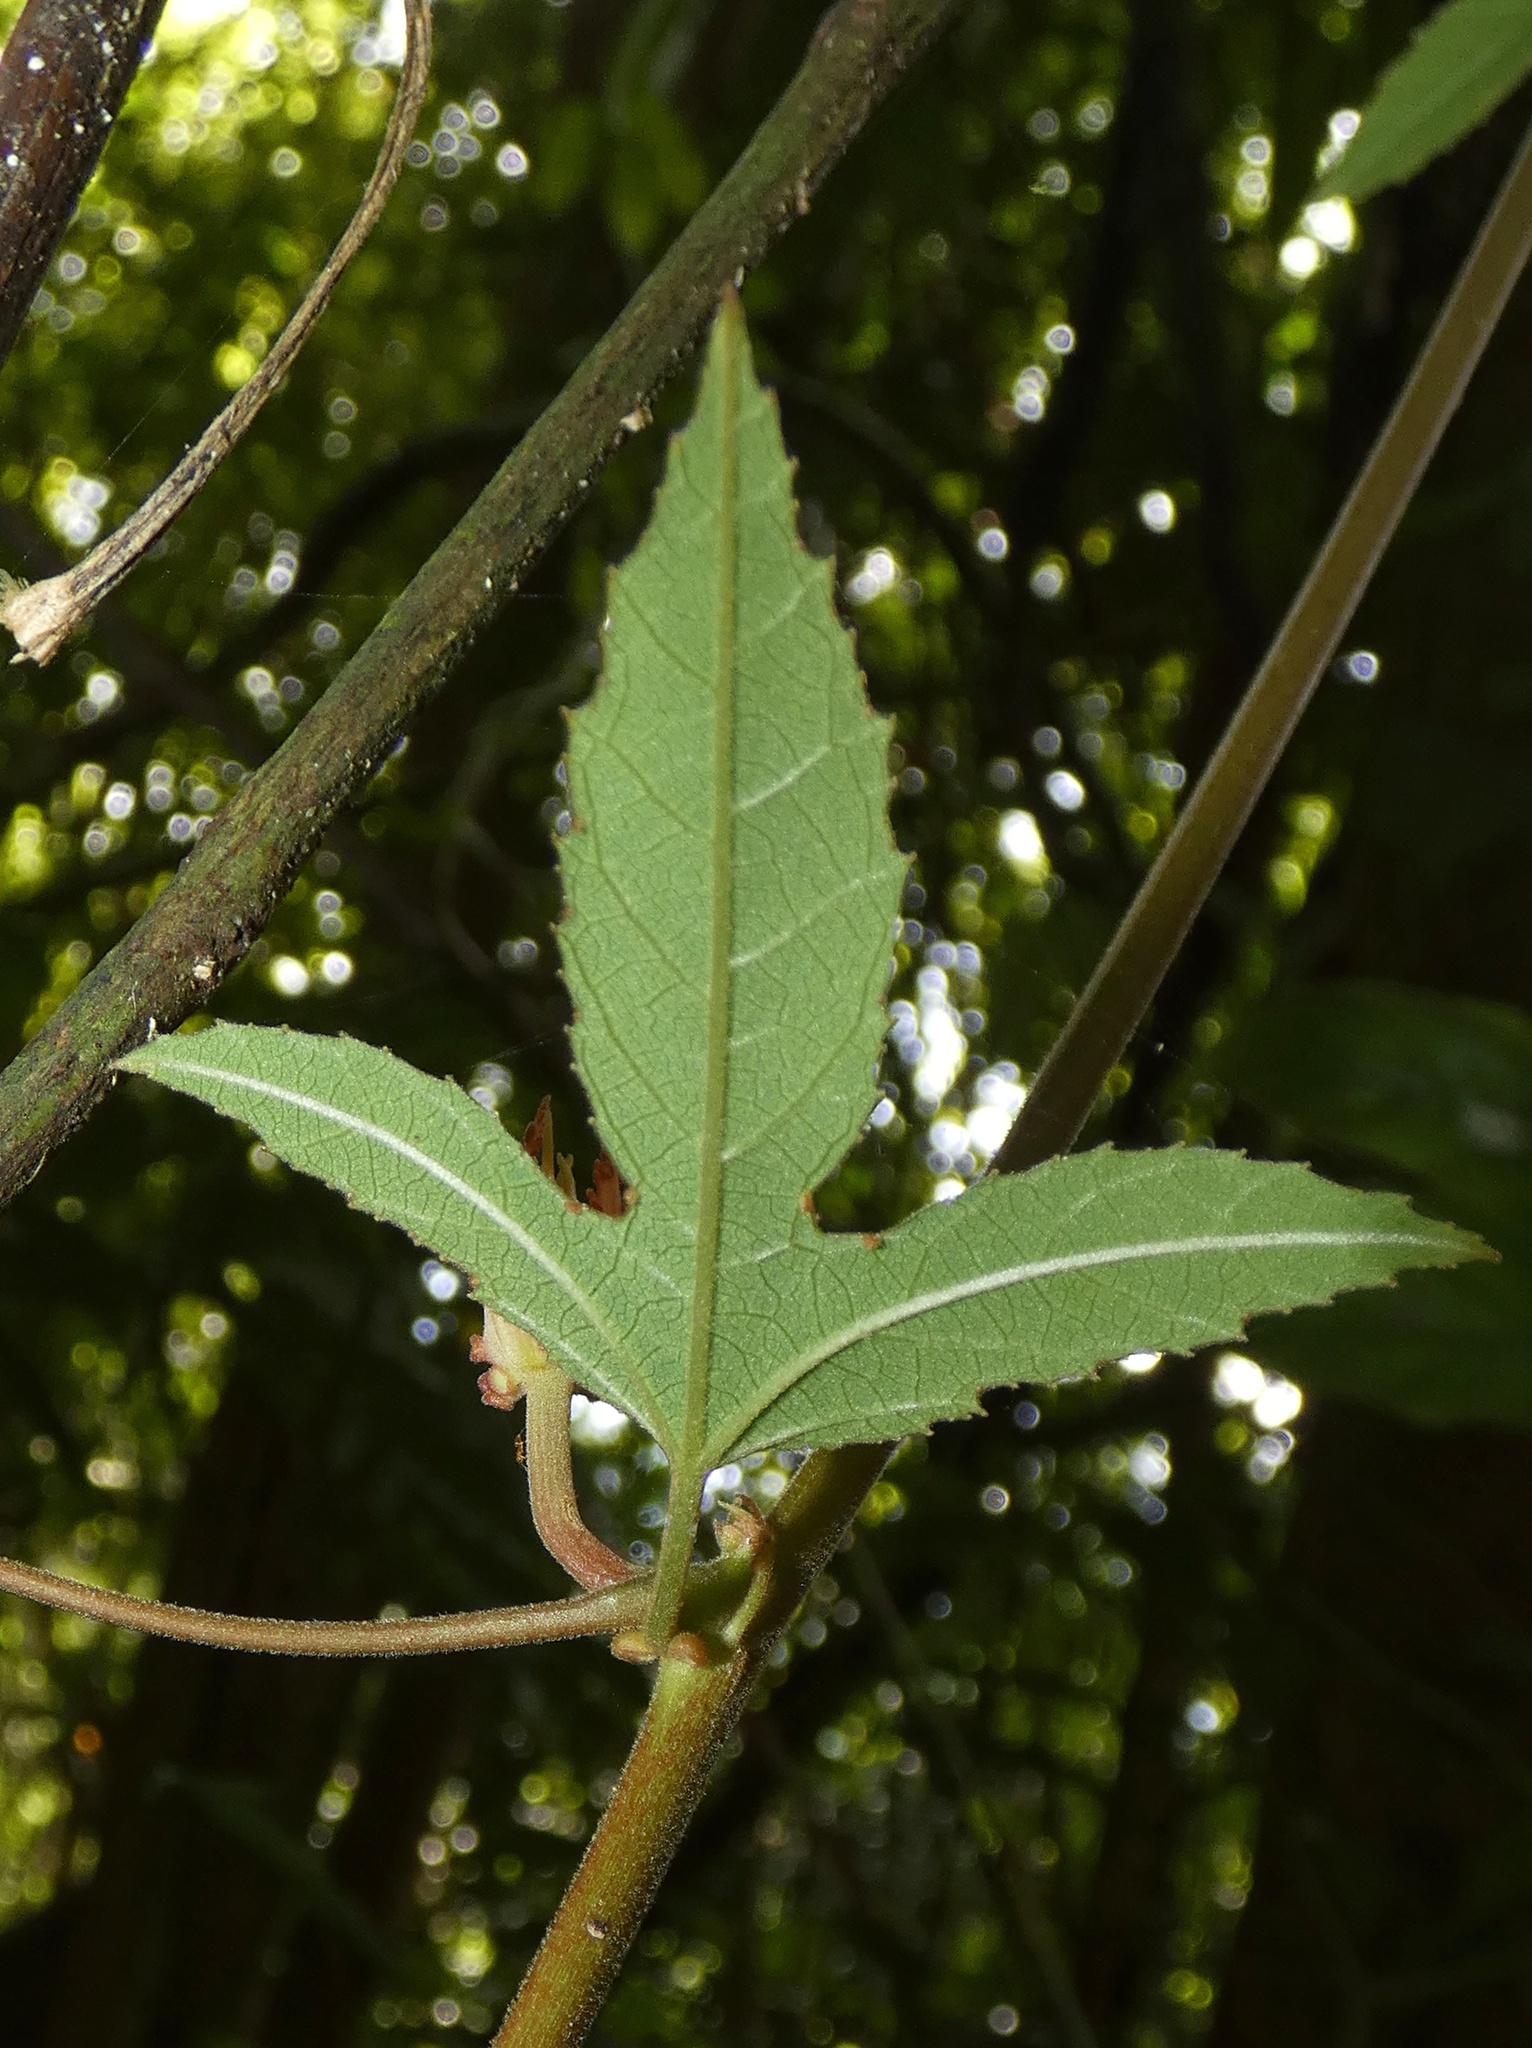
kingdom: Plantae
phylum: Tracheophyta
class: Magnoliopsida
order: Malpighiales
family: Passifloraceae
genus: Passiflora
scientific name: Passiflora vitifolia
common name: Perfumed passionflower
